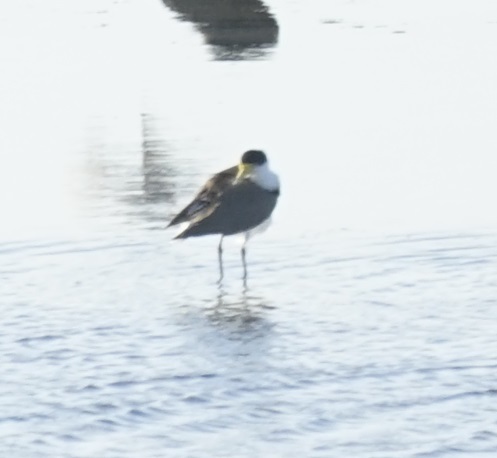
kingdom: Animalia
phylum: Chordata
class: Aves
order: Charadriiformes
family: Charadriidae
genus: Vanellus
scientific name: Vanellus miles
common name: Masked lapwing
